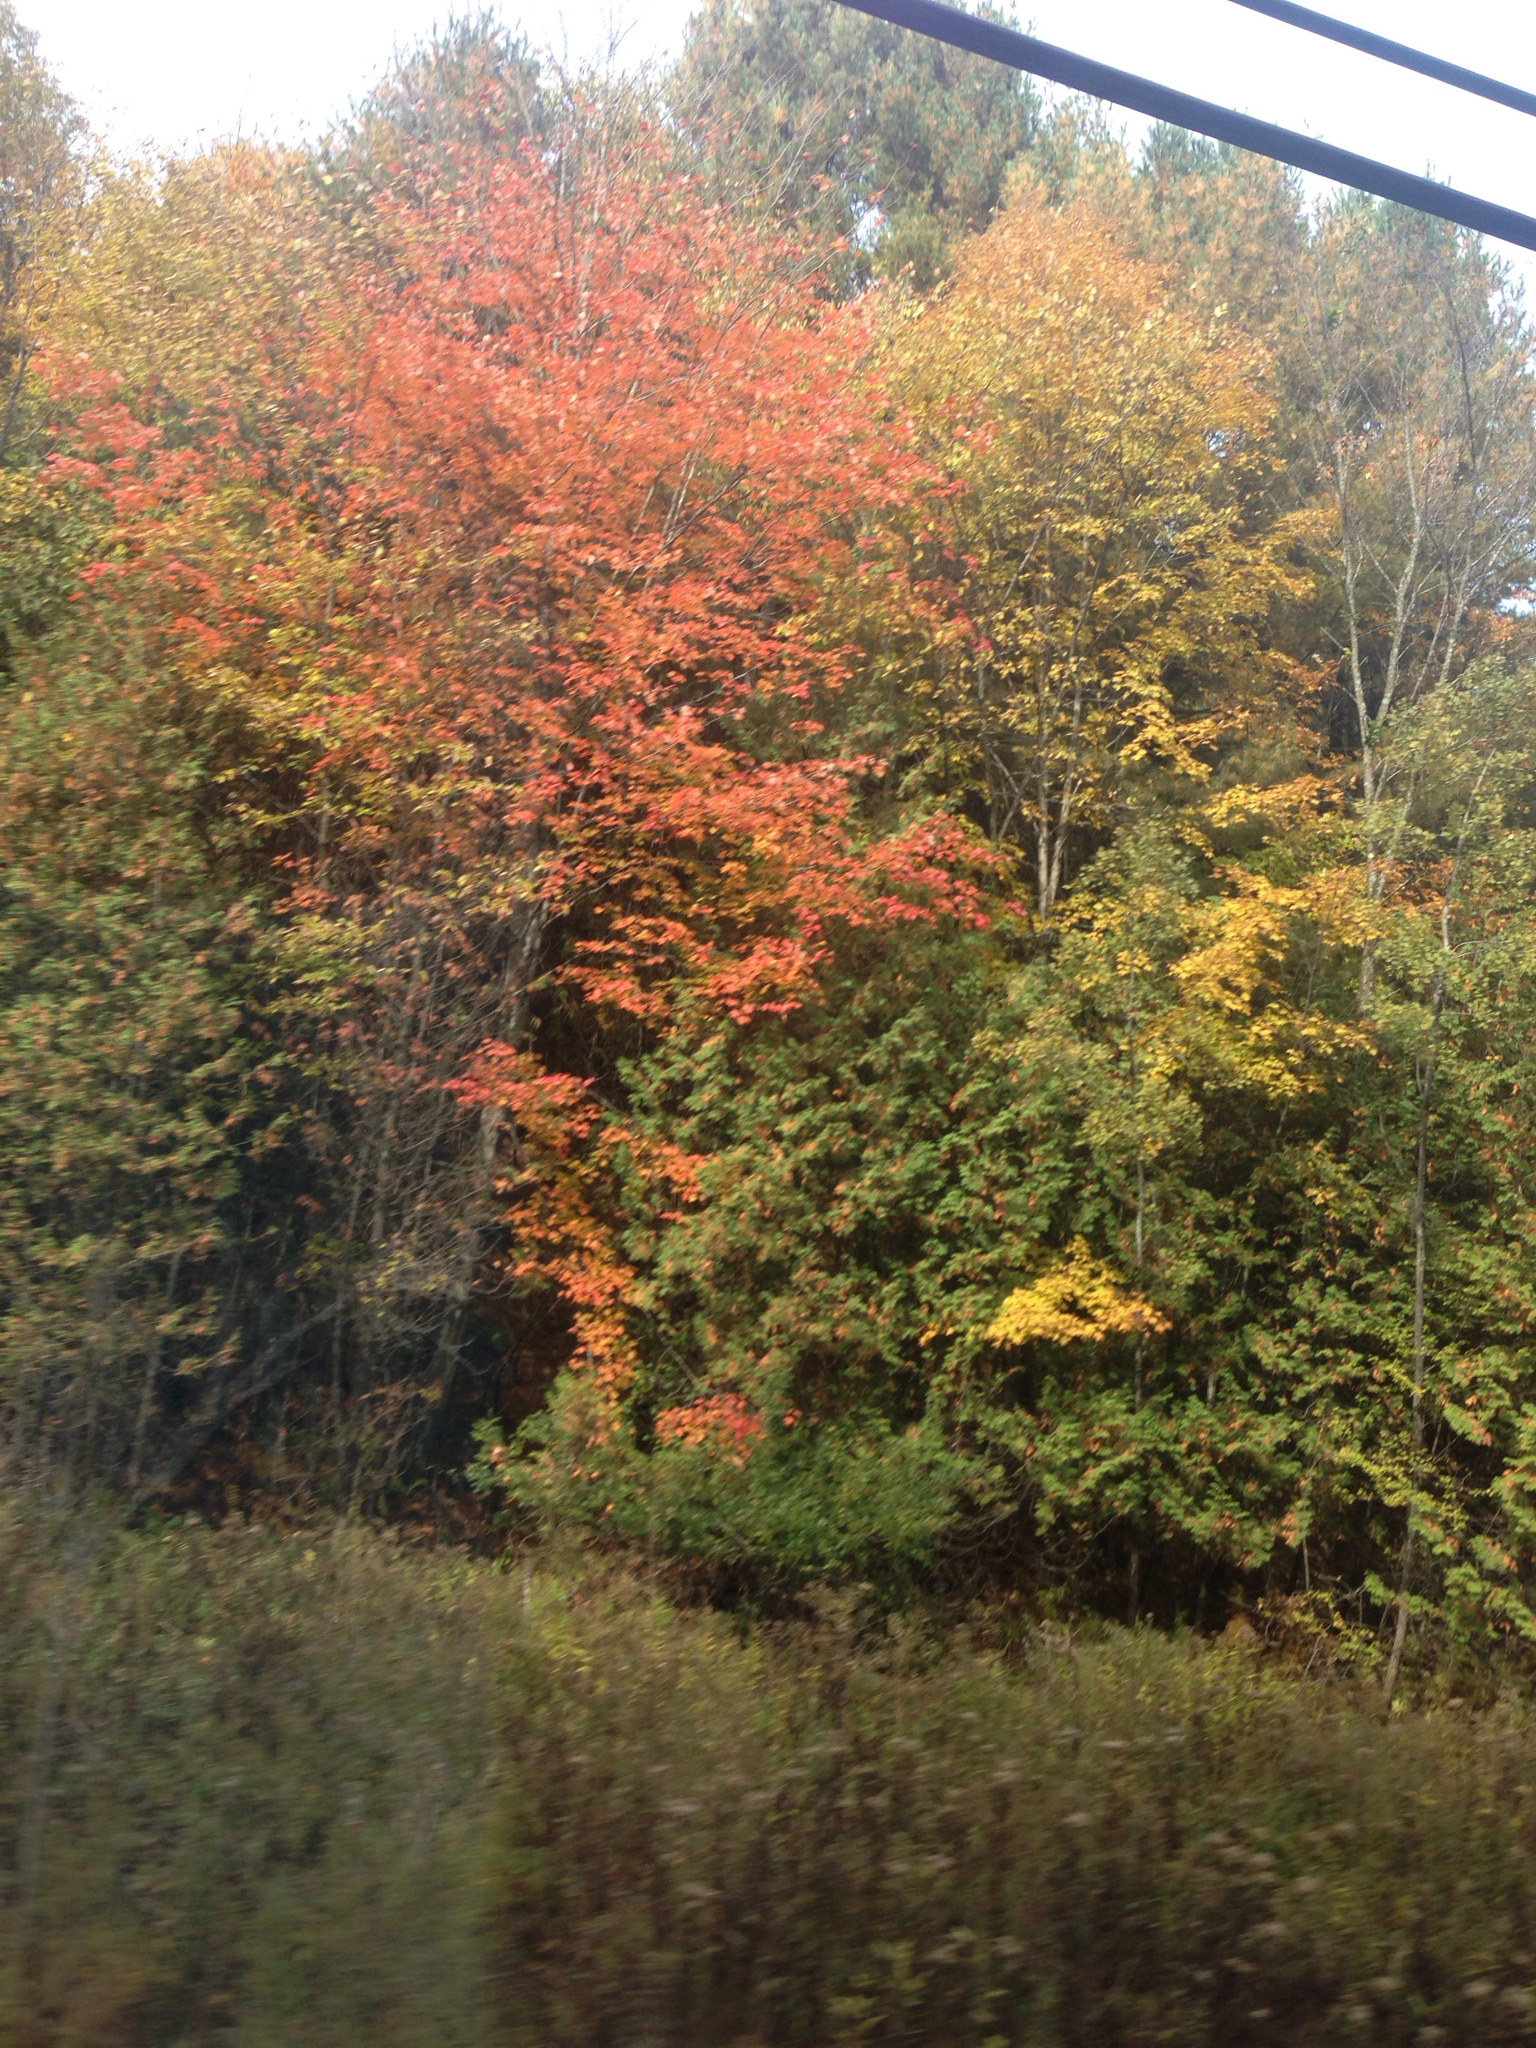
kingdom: Plantae
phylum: Tracheophyta
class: Pinopsida
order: Pinales
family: Cupressaceae
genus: Thuja
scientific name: Thuja occidentalis
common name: Northern white-cedar
